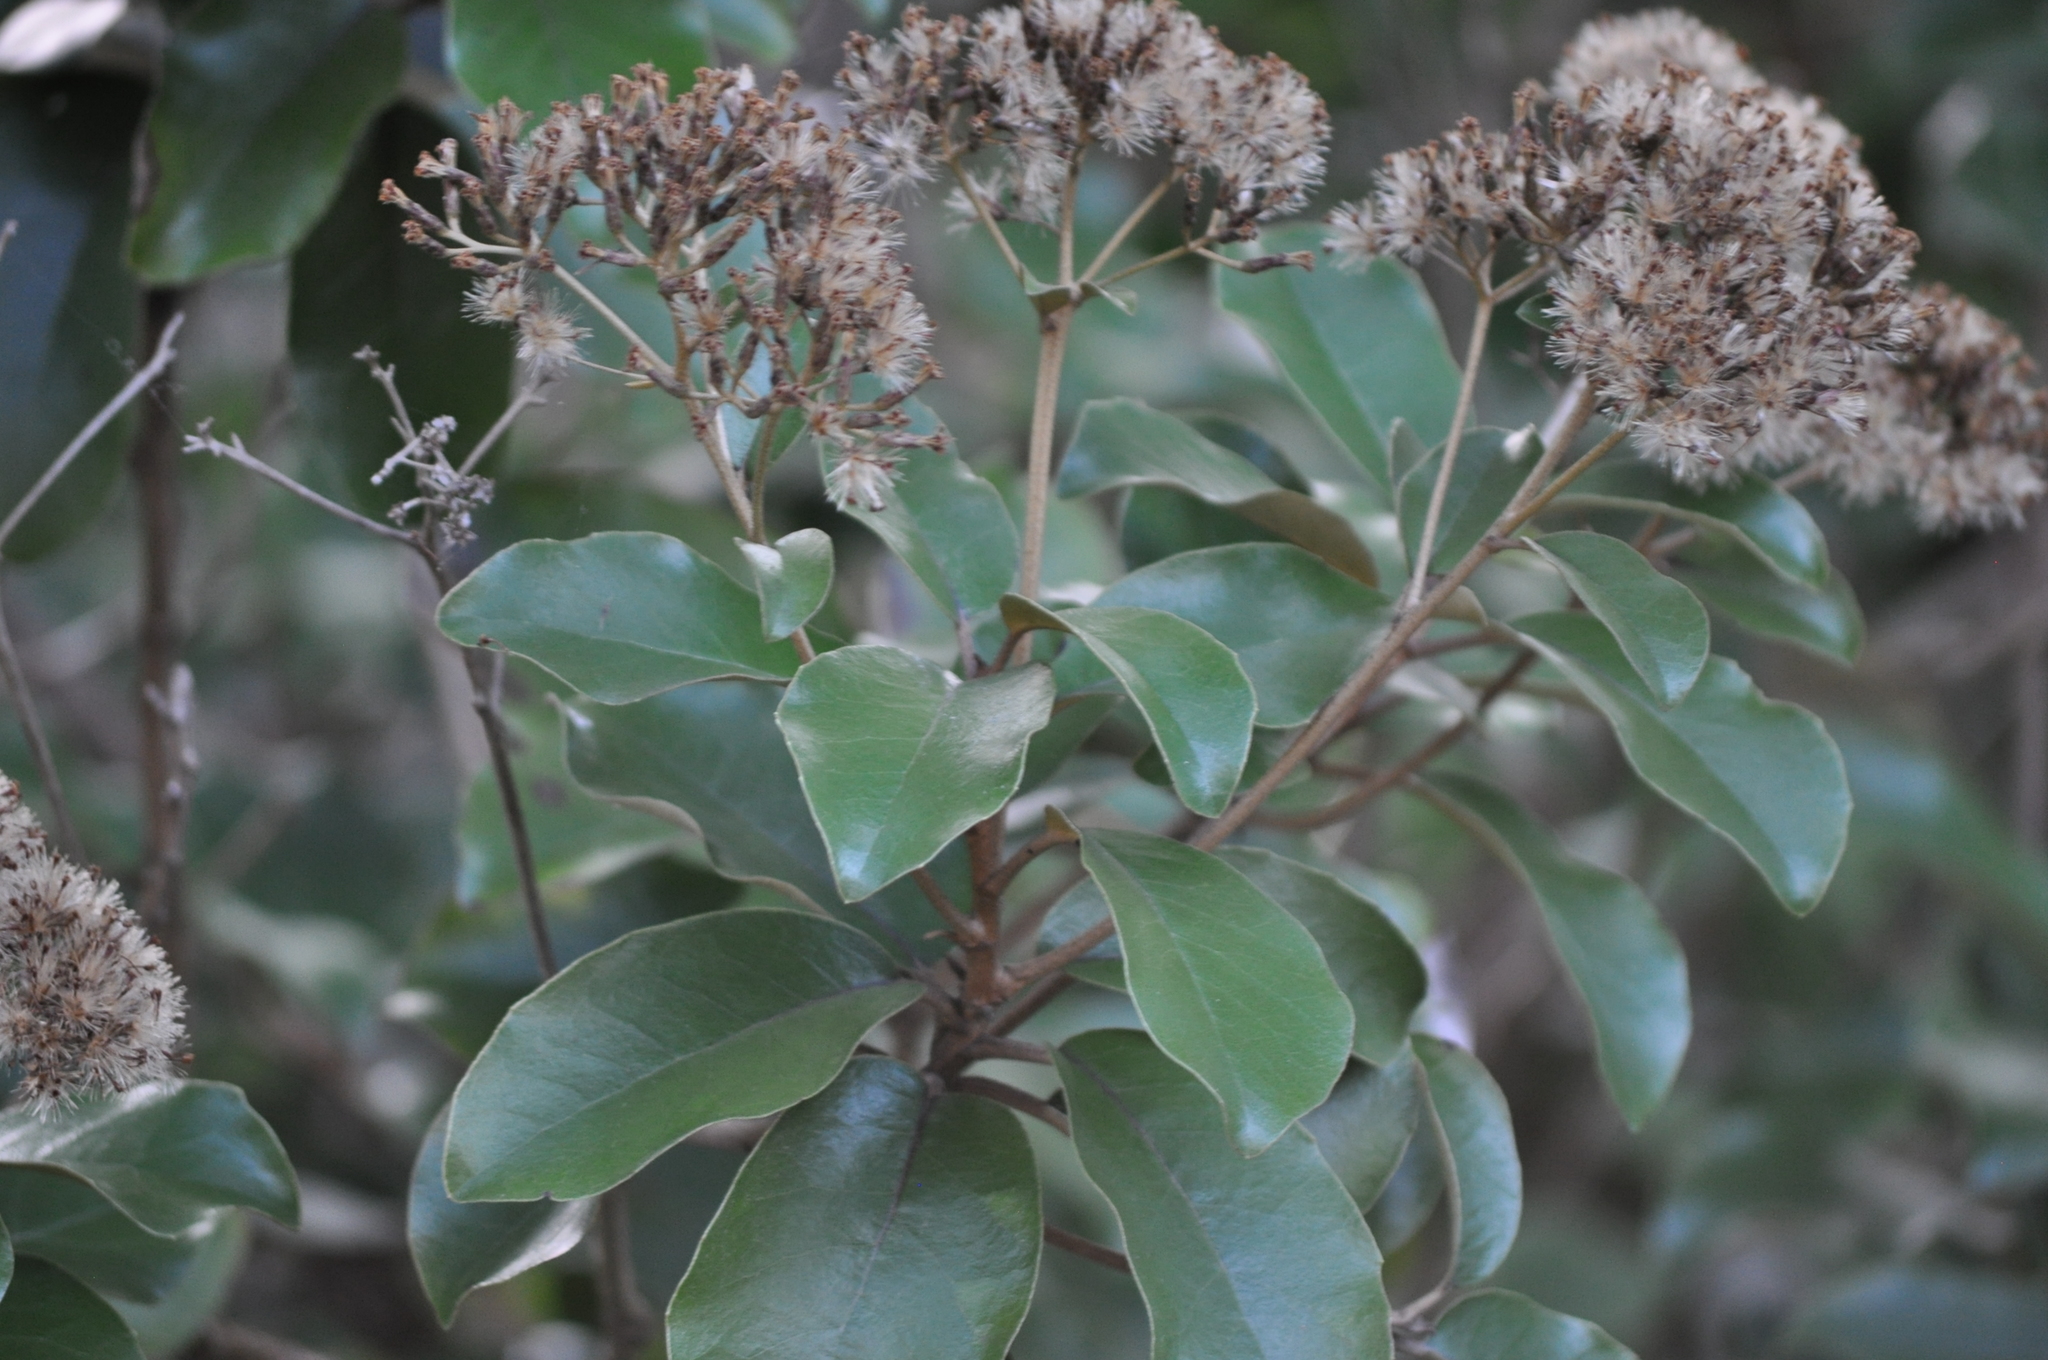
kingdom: Plantae
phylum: Tracheophyta
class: Magnoliopsida
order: Asterales
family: Asteraceae
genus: Olearia
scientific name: Olearia furfuracea
